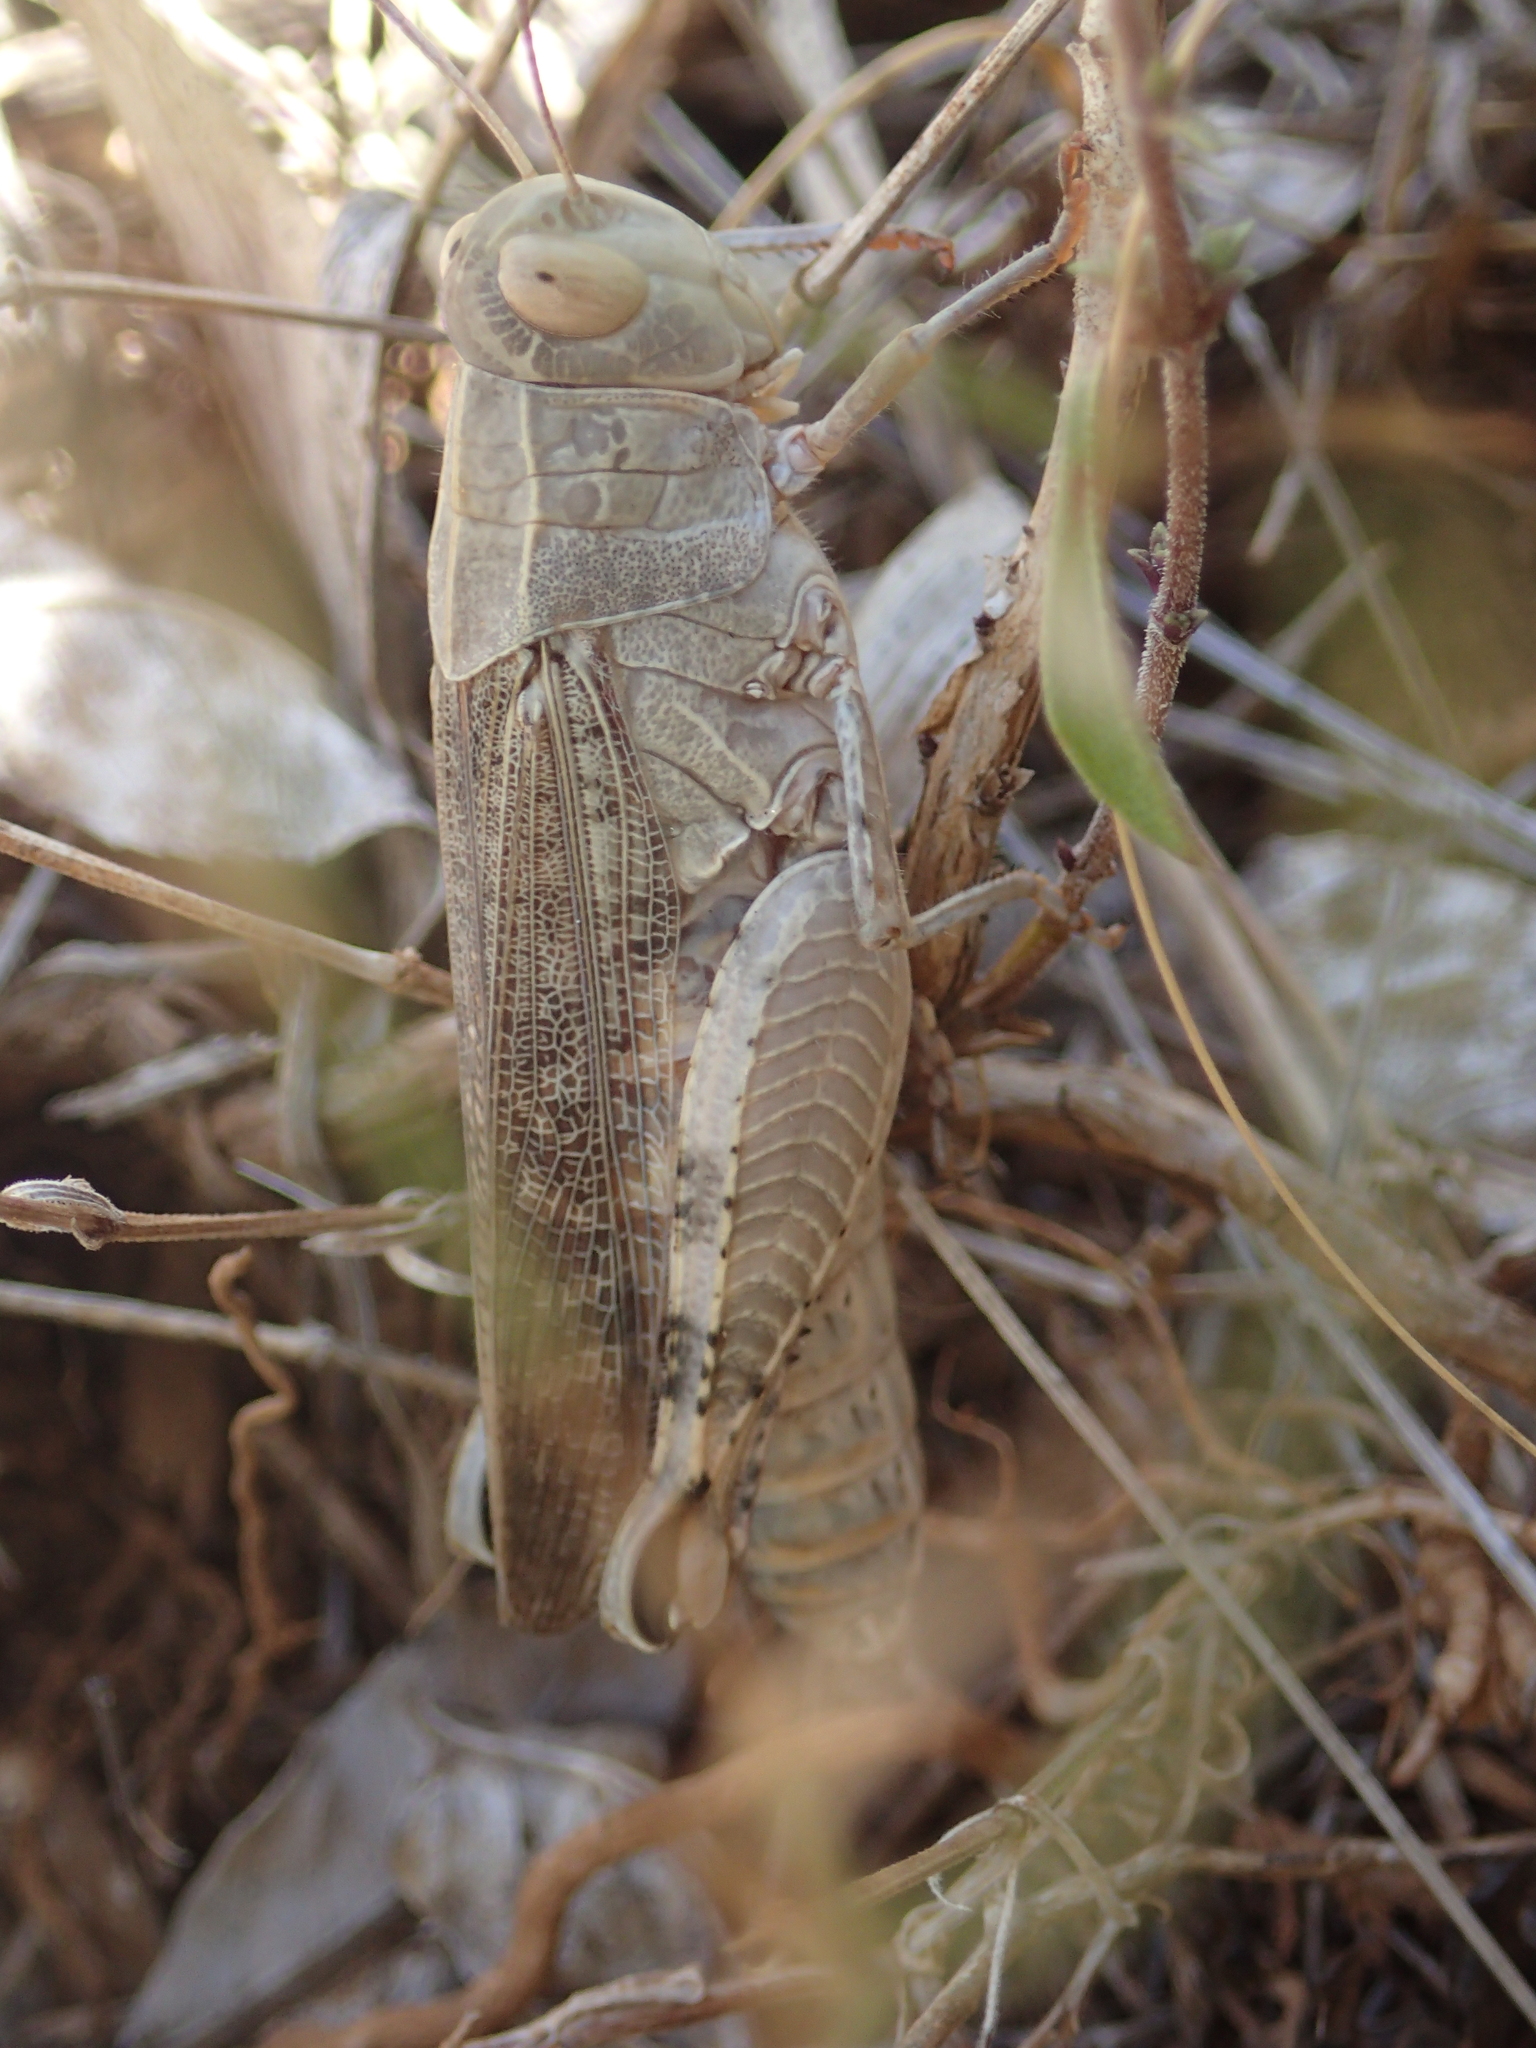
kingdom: Animalia
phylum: Arthropoda
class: Insecta
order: Orthoptera
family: Acrididae
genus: Calliptamus
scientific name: Calliptamus italicus
